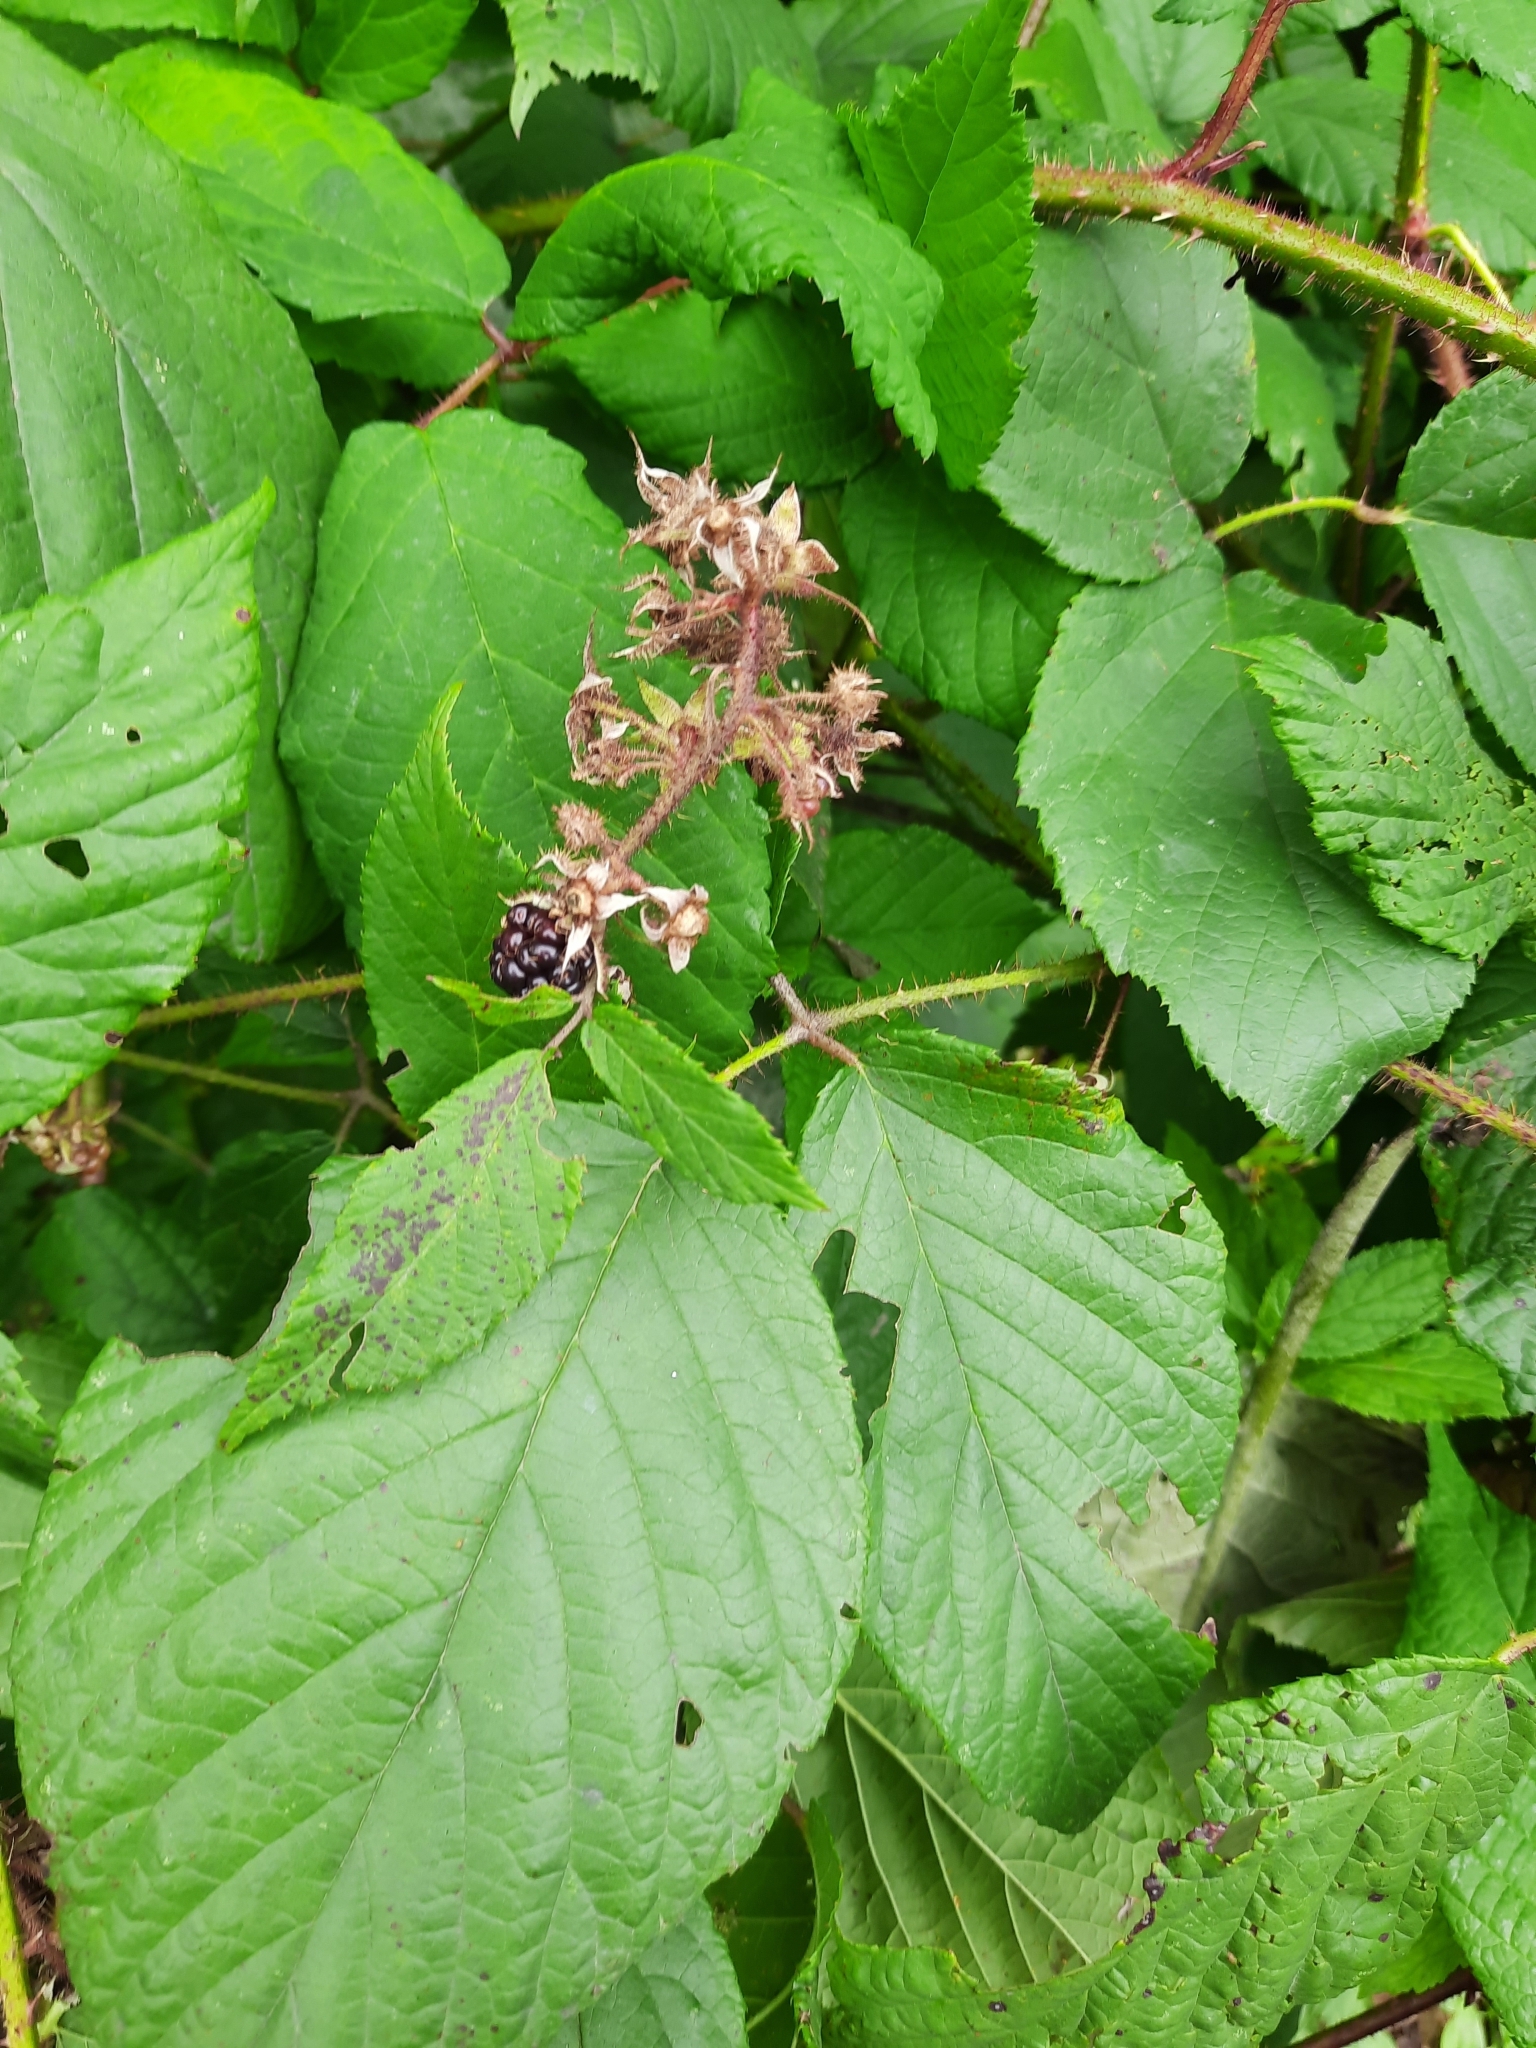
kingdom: Plantae
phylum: Tracheophyta
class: Magnoliopsida
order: Rosales
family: Rosaceae
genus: Rubus
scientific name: Rubus hirtus
